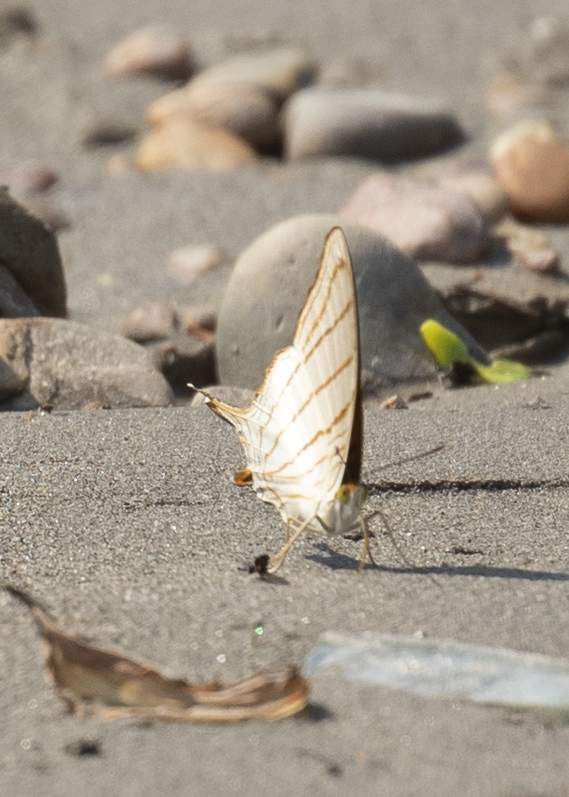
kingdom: Animalia
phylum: Arthropoda
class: Insecta
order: Lepidoptera
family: Nymphalidae
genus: Marpesia
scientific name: Marpesia berania
